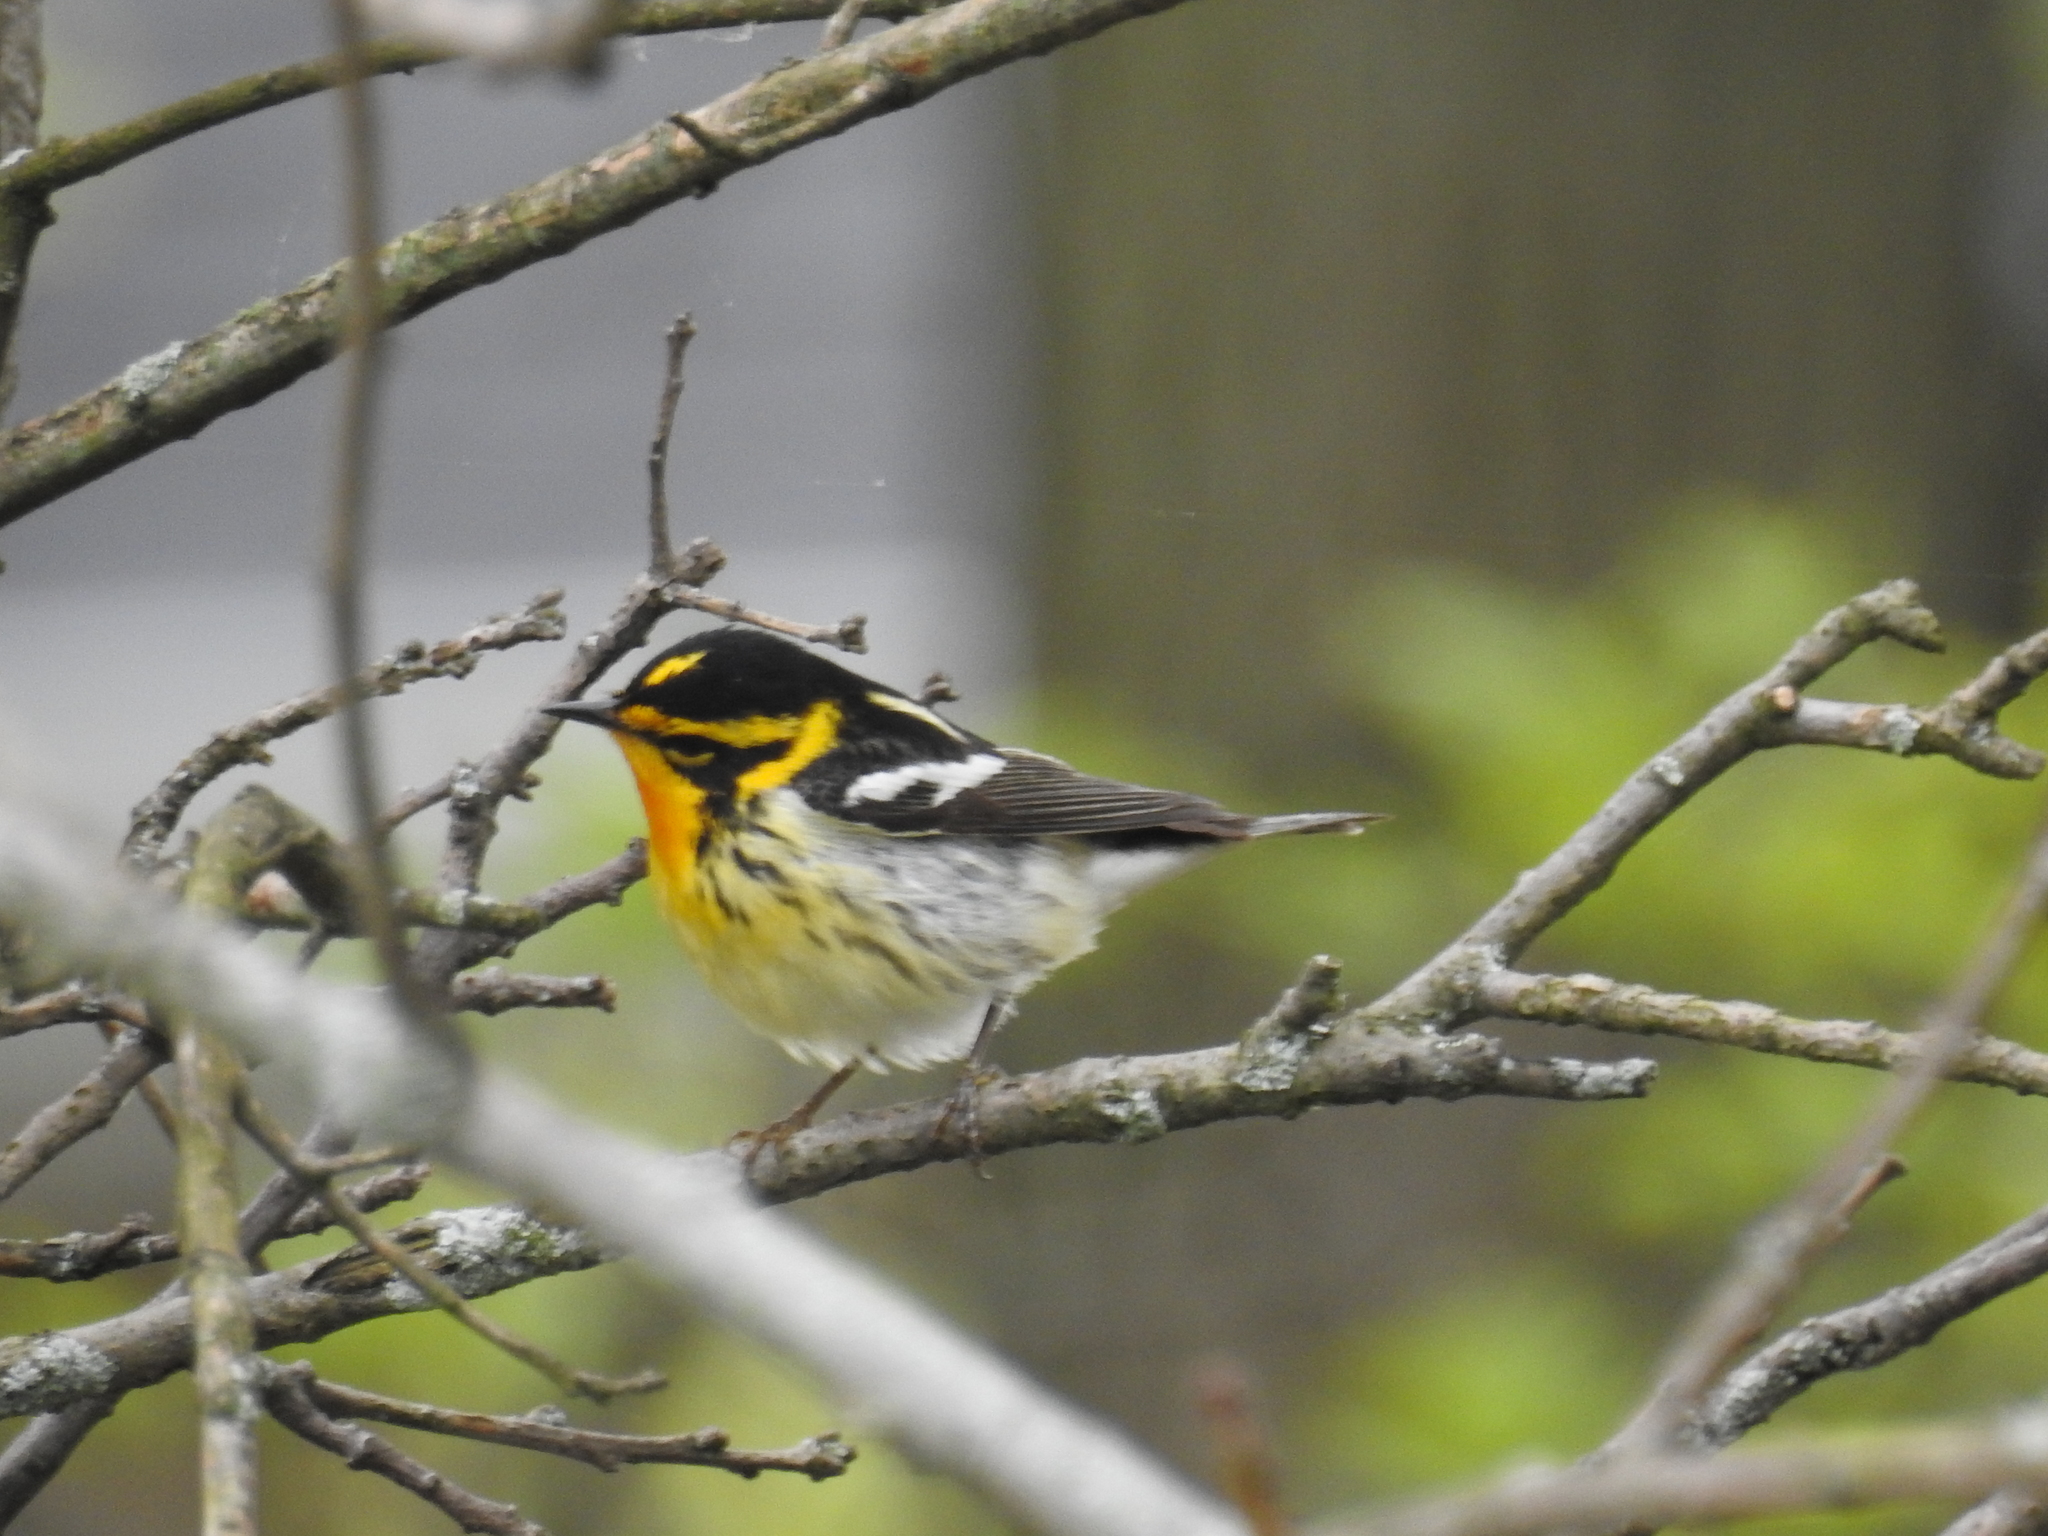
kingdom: Animalia
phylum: Chordata
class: Aves
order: Passeriformes
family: Parulidae
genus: Setophaga
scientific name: Setophaga fusca
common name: Blackburnian warbler
